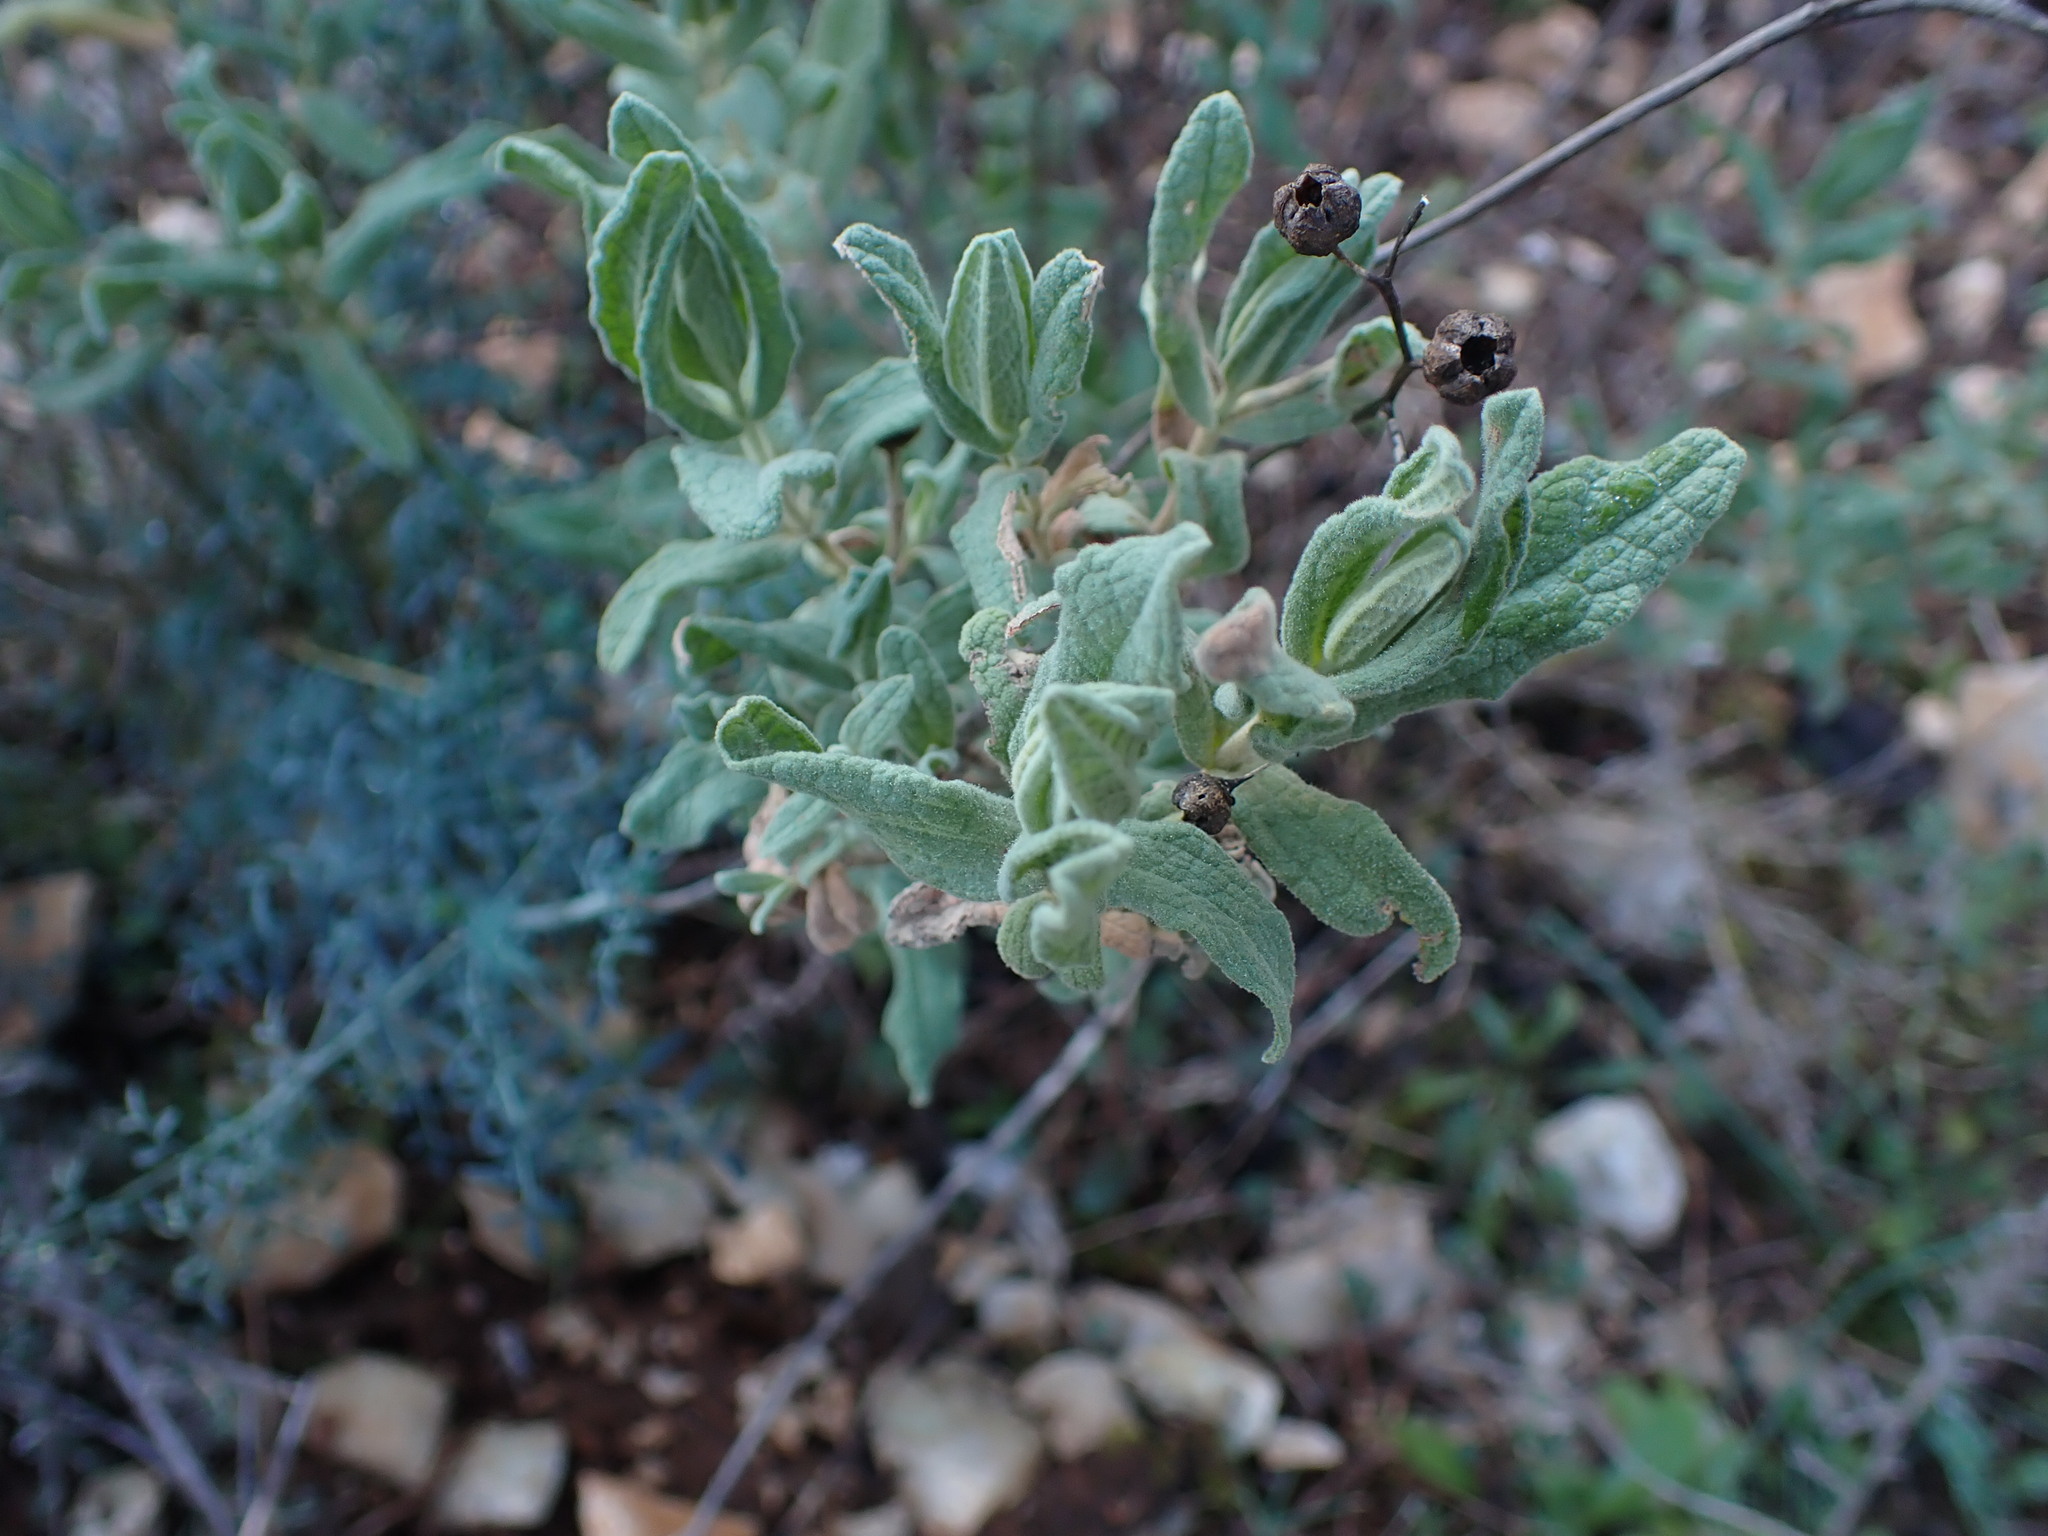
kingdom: Plantae
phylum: Tracheophyta
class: Magnoliopsida
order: Malvales
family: Cistaceae
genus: Cistus
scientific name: Cistus albidus
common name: White-leaf rock-rose
